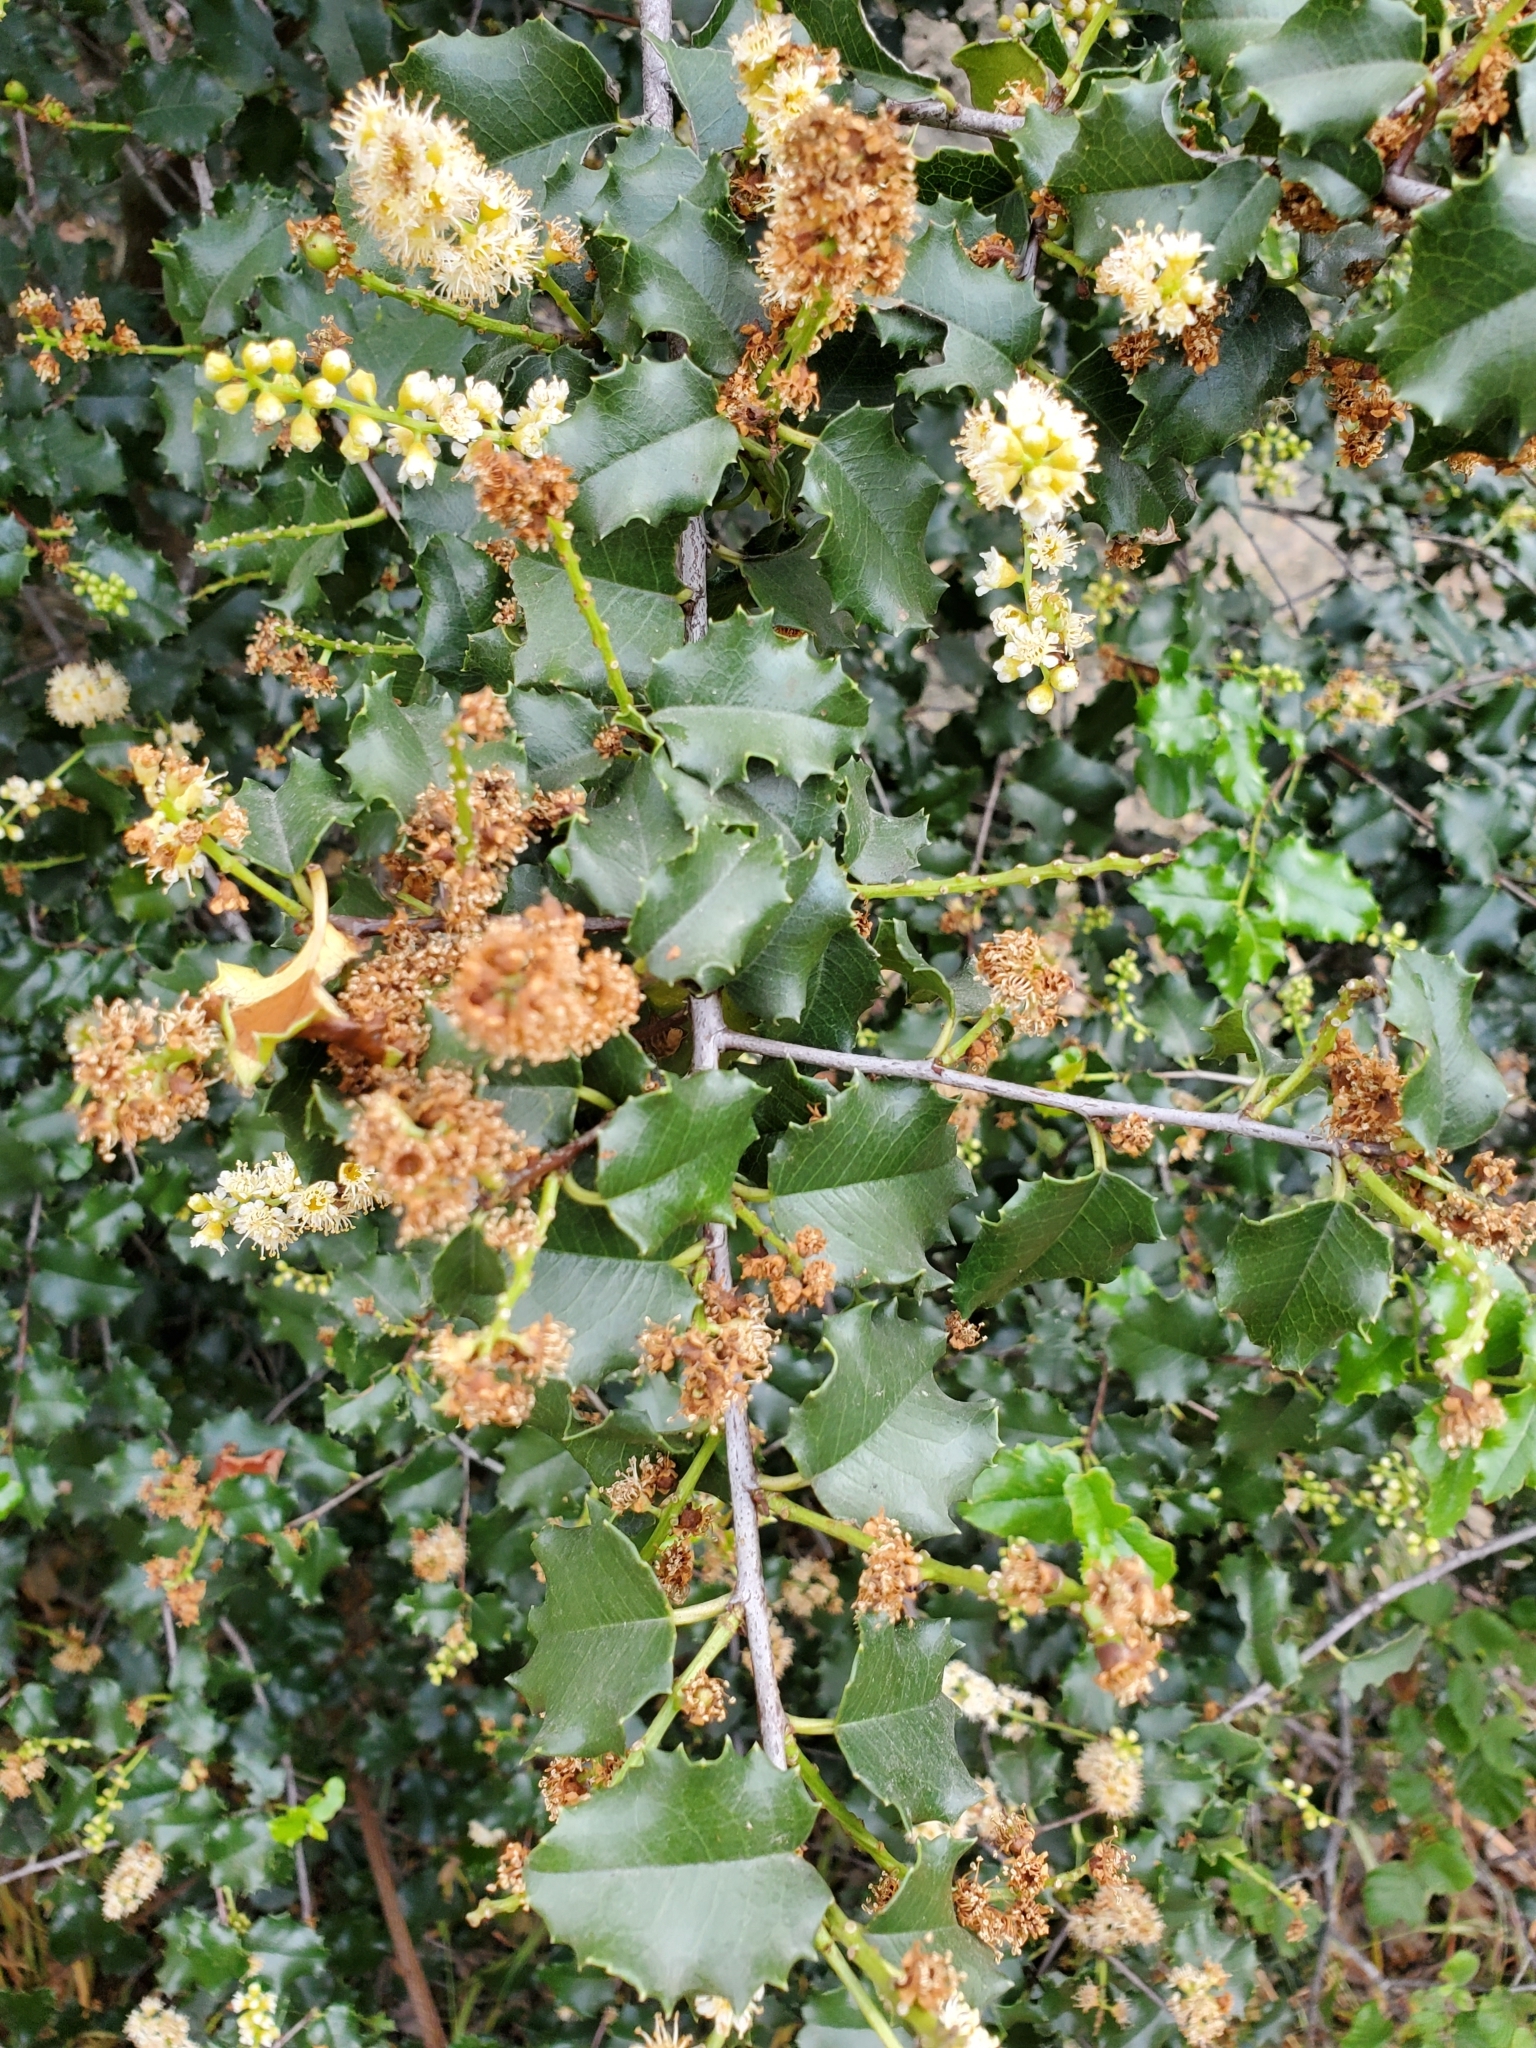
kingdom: Plantae
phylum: Tracheophyta
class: Magnoliopsida
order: Rosales
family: Rosaceae
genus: Prunus
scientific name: Prunus ilicifolia
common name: Hollyleaf cherry
